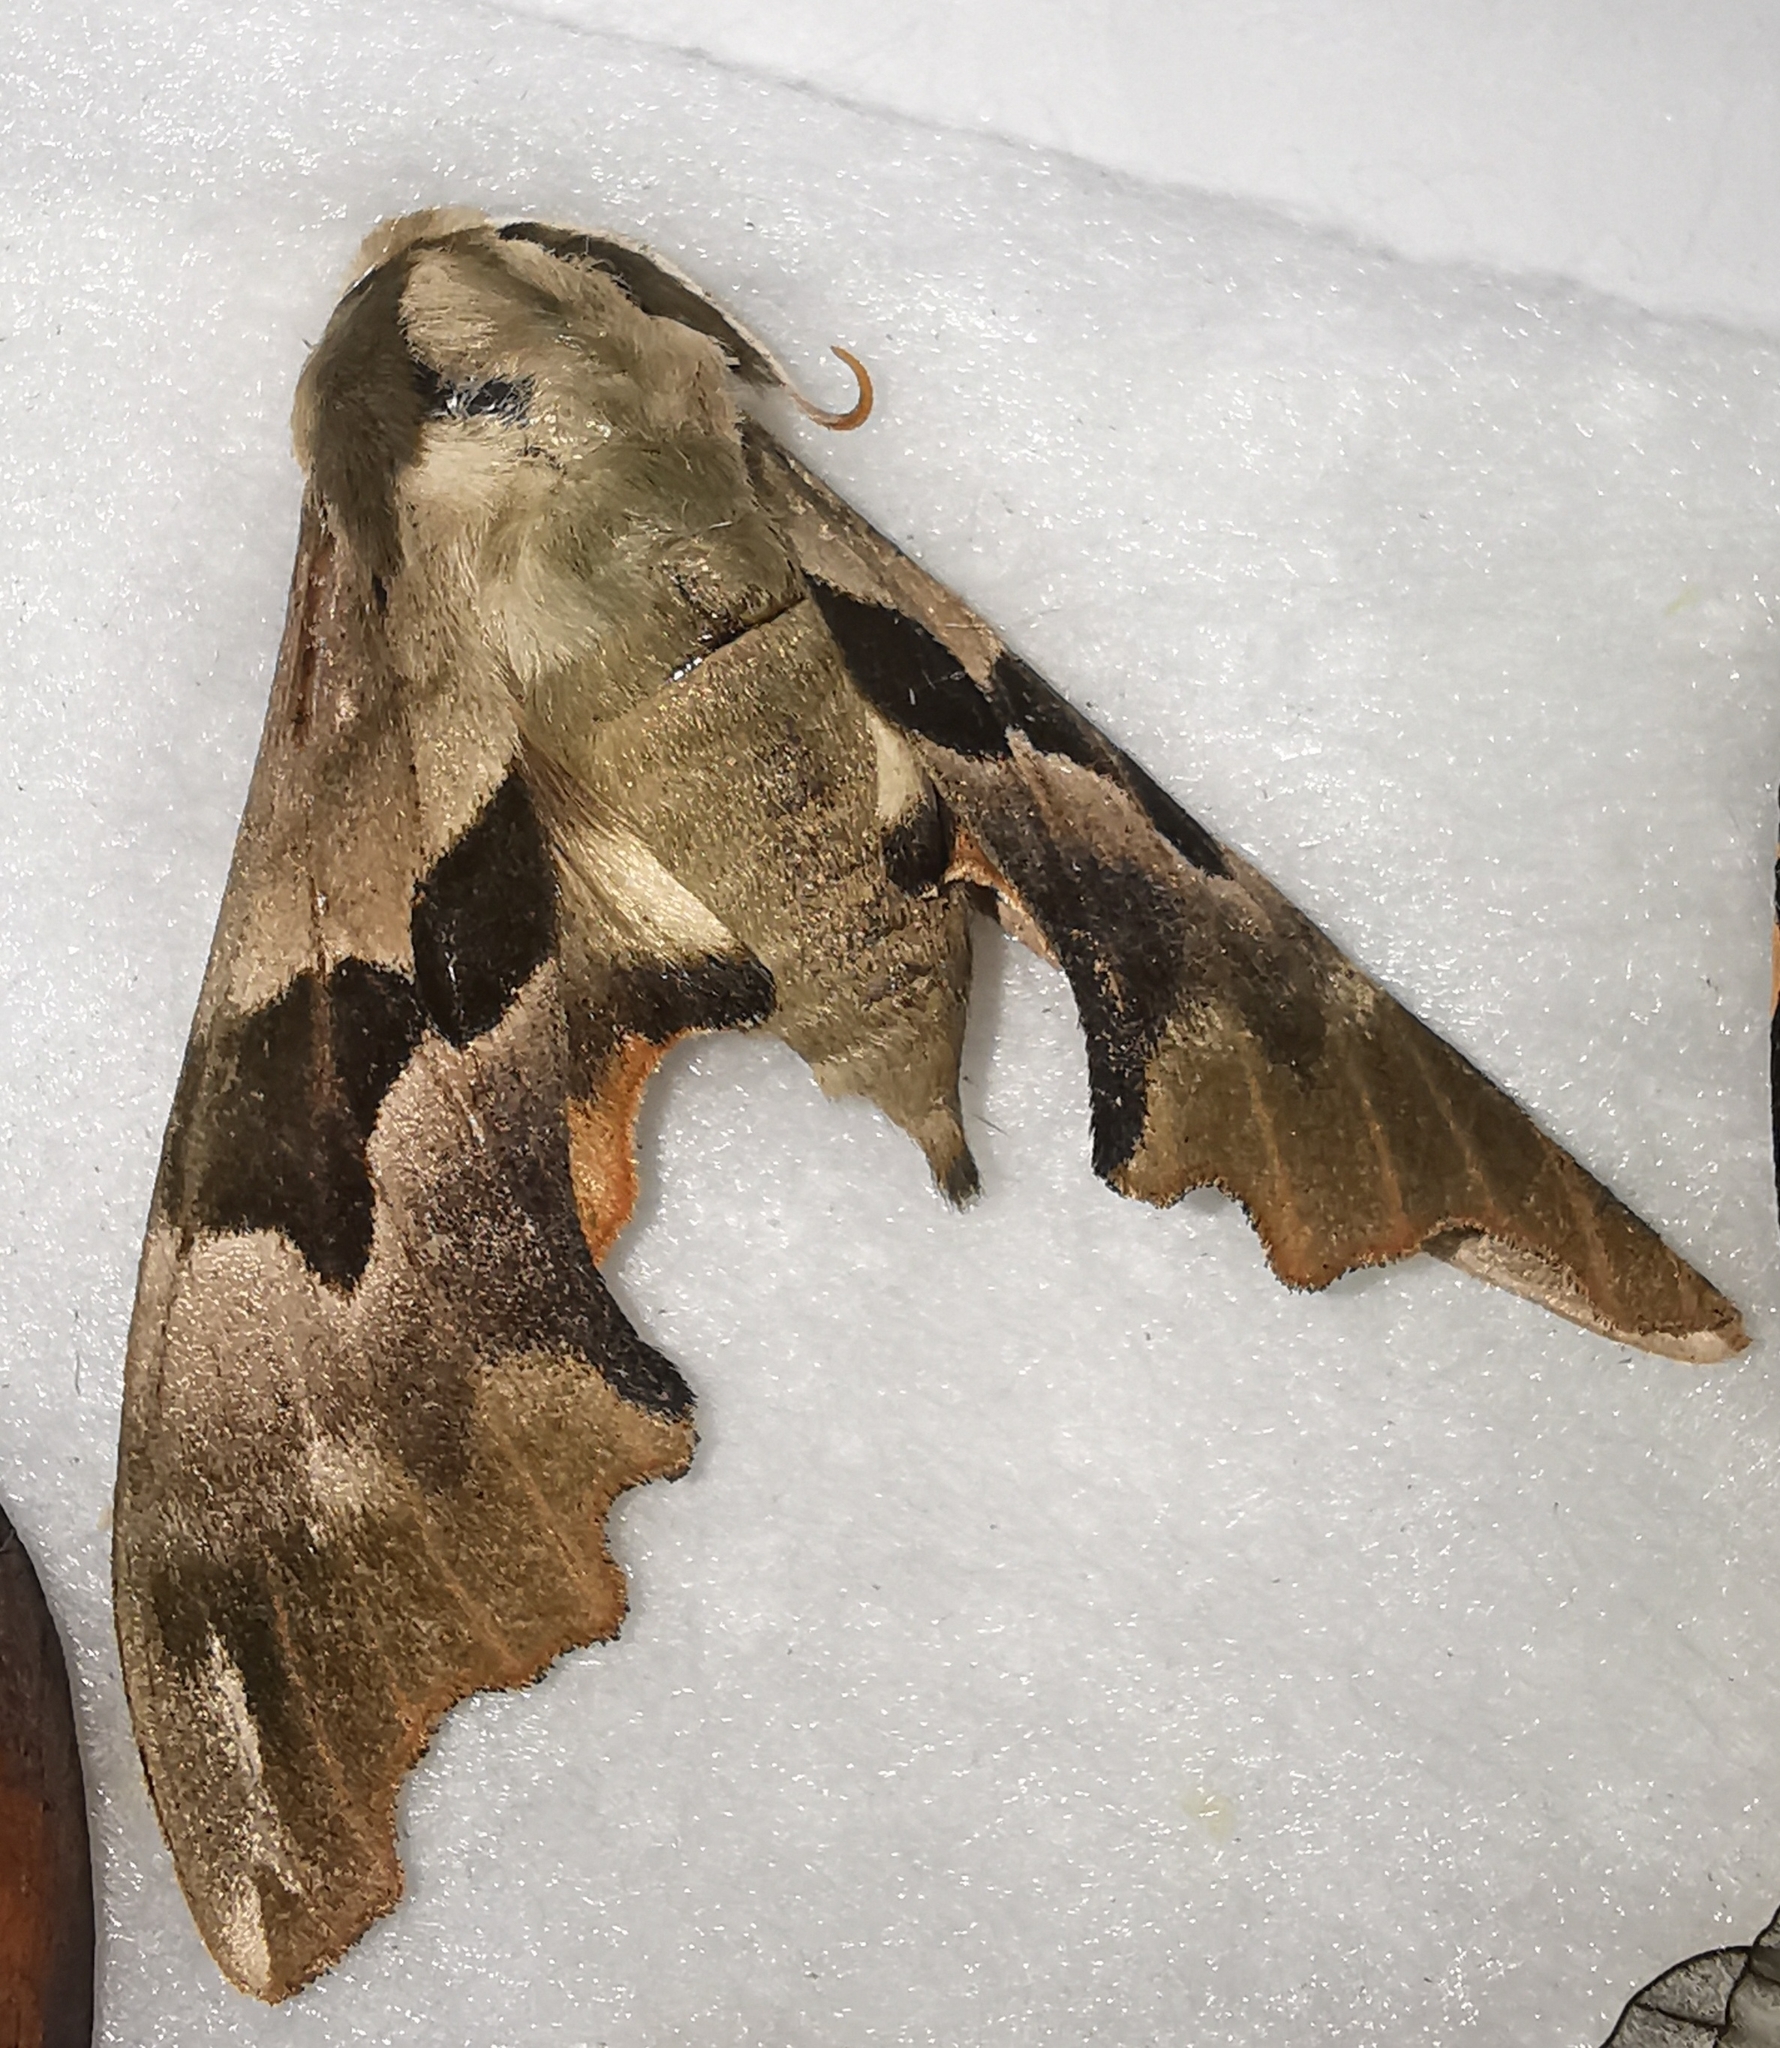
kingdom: Animalia
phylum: Arthropoda
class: Insecta
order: Lepidoptera
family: Sphingidae
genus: Mimas
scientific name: Mimas tiliae
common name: Lime hawk-moth
